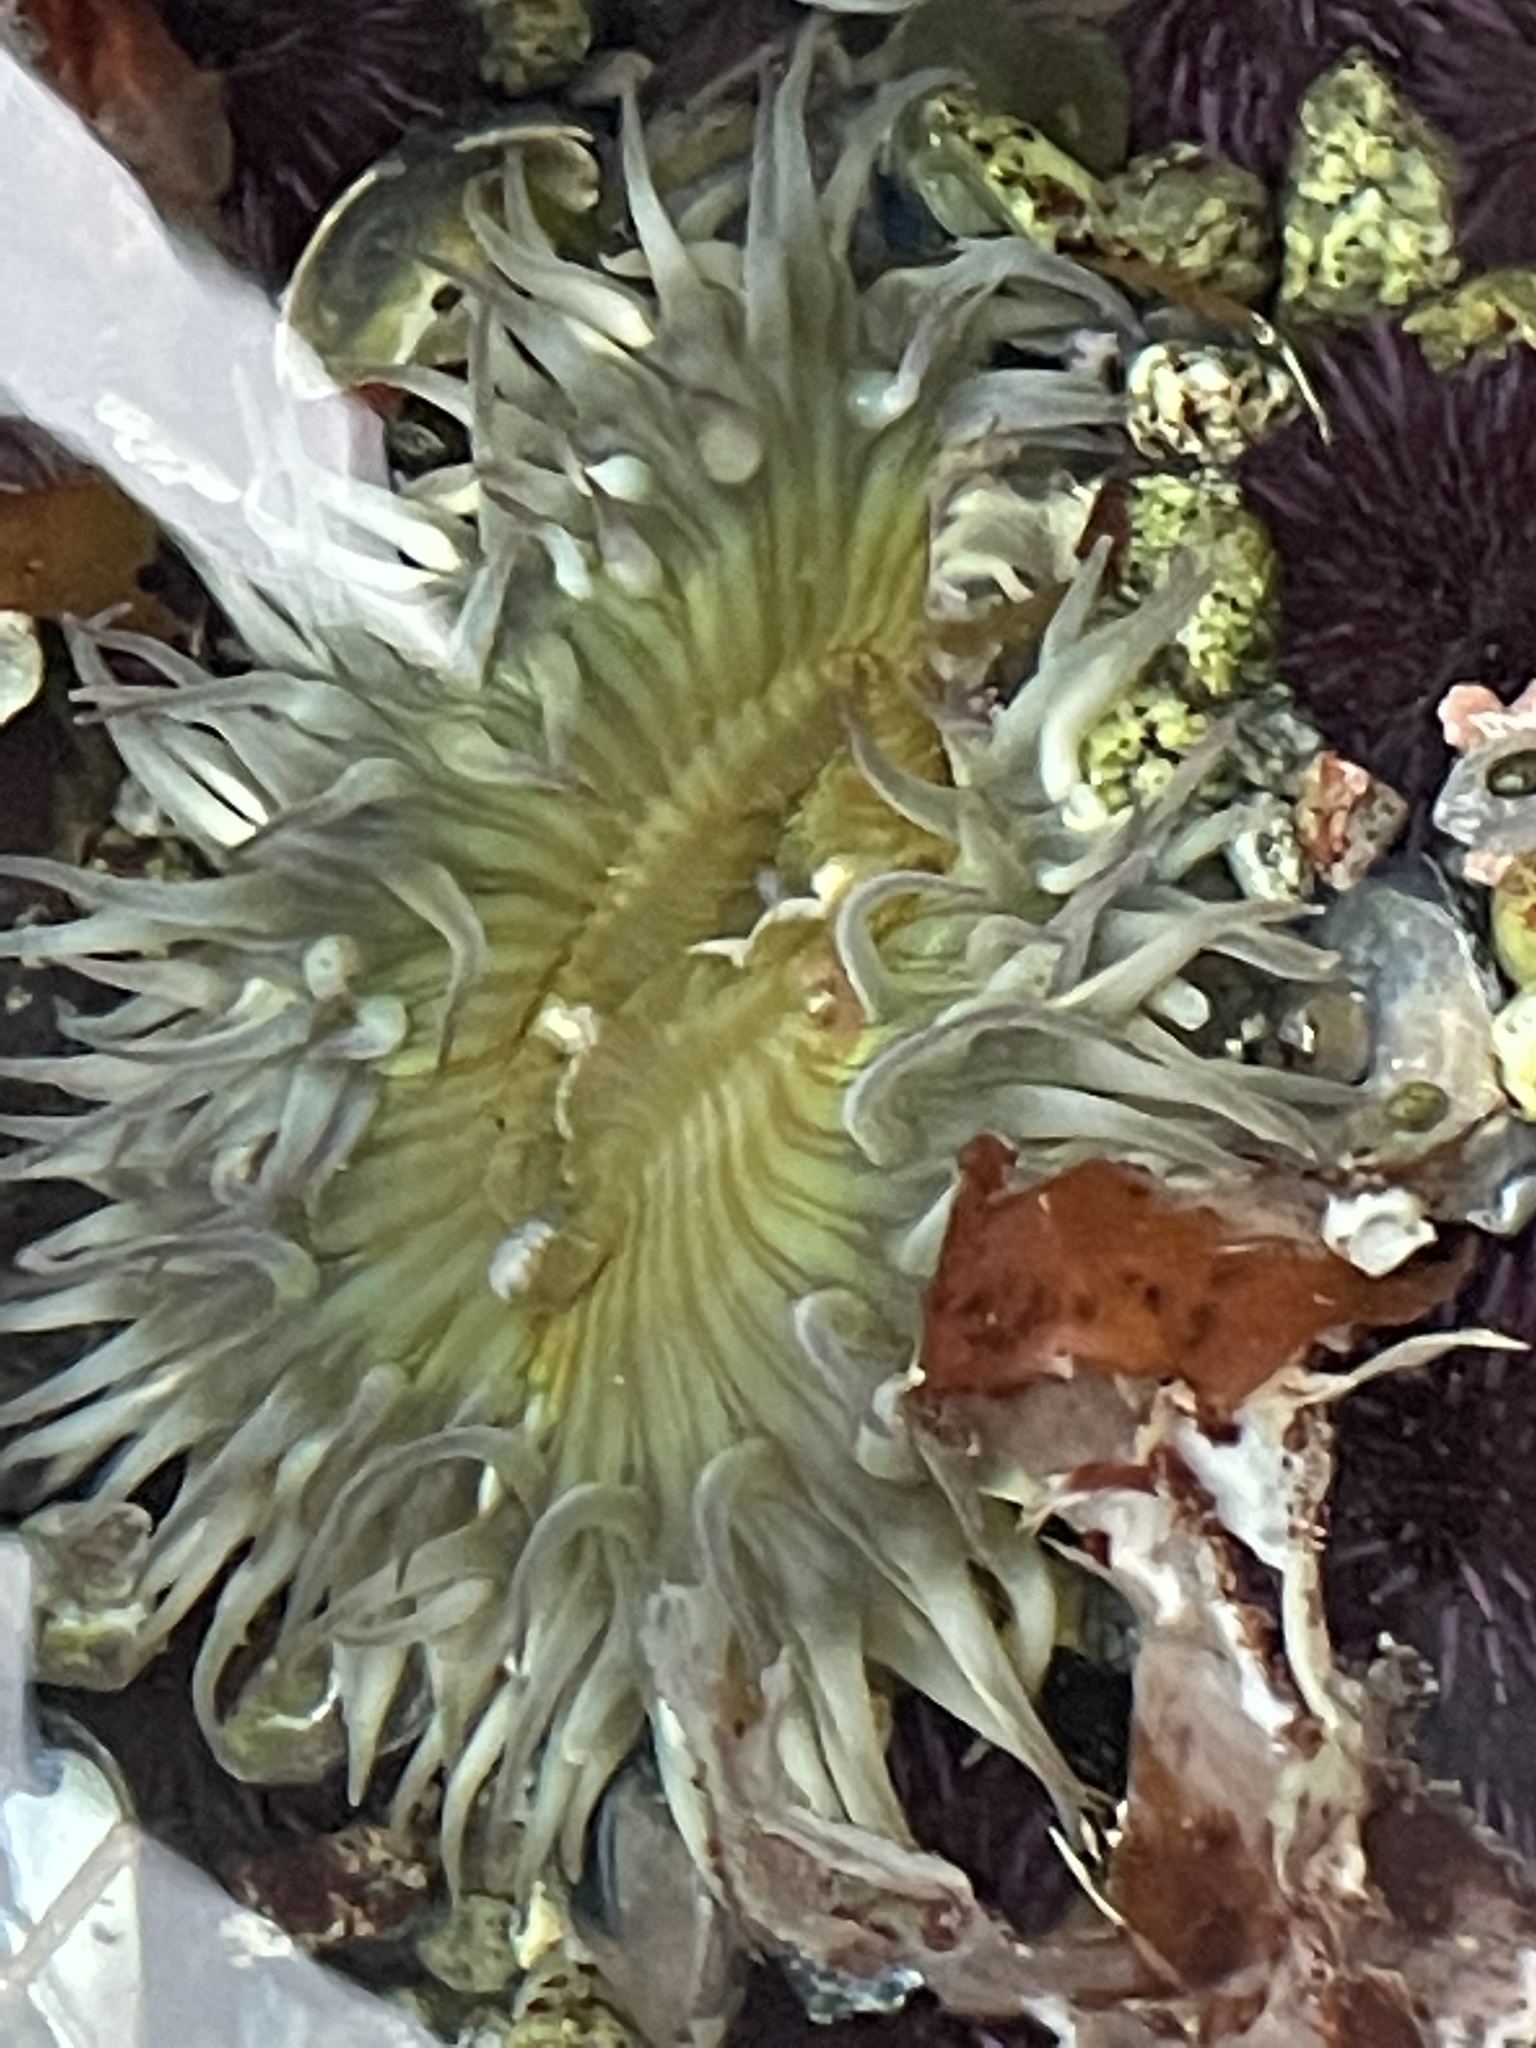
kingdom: Animalia
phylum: Cnidaria
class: Anthozoa
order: Actiniaria
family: Actiniidae
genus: Anthopleura
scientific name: Anthopleura sola
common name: Sun anemone
